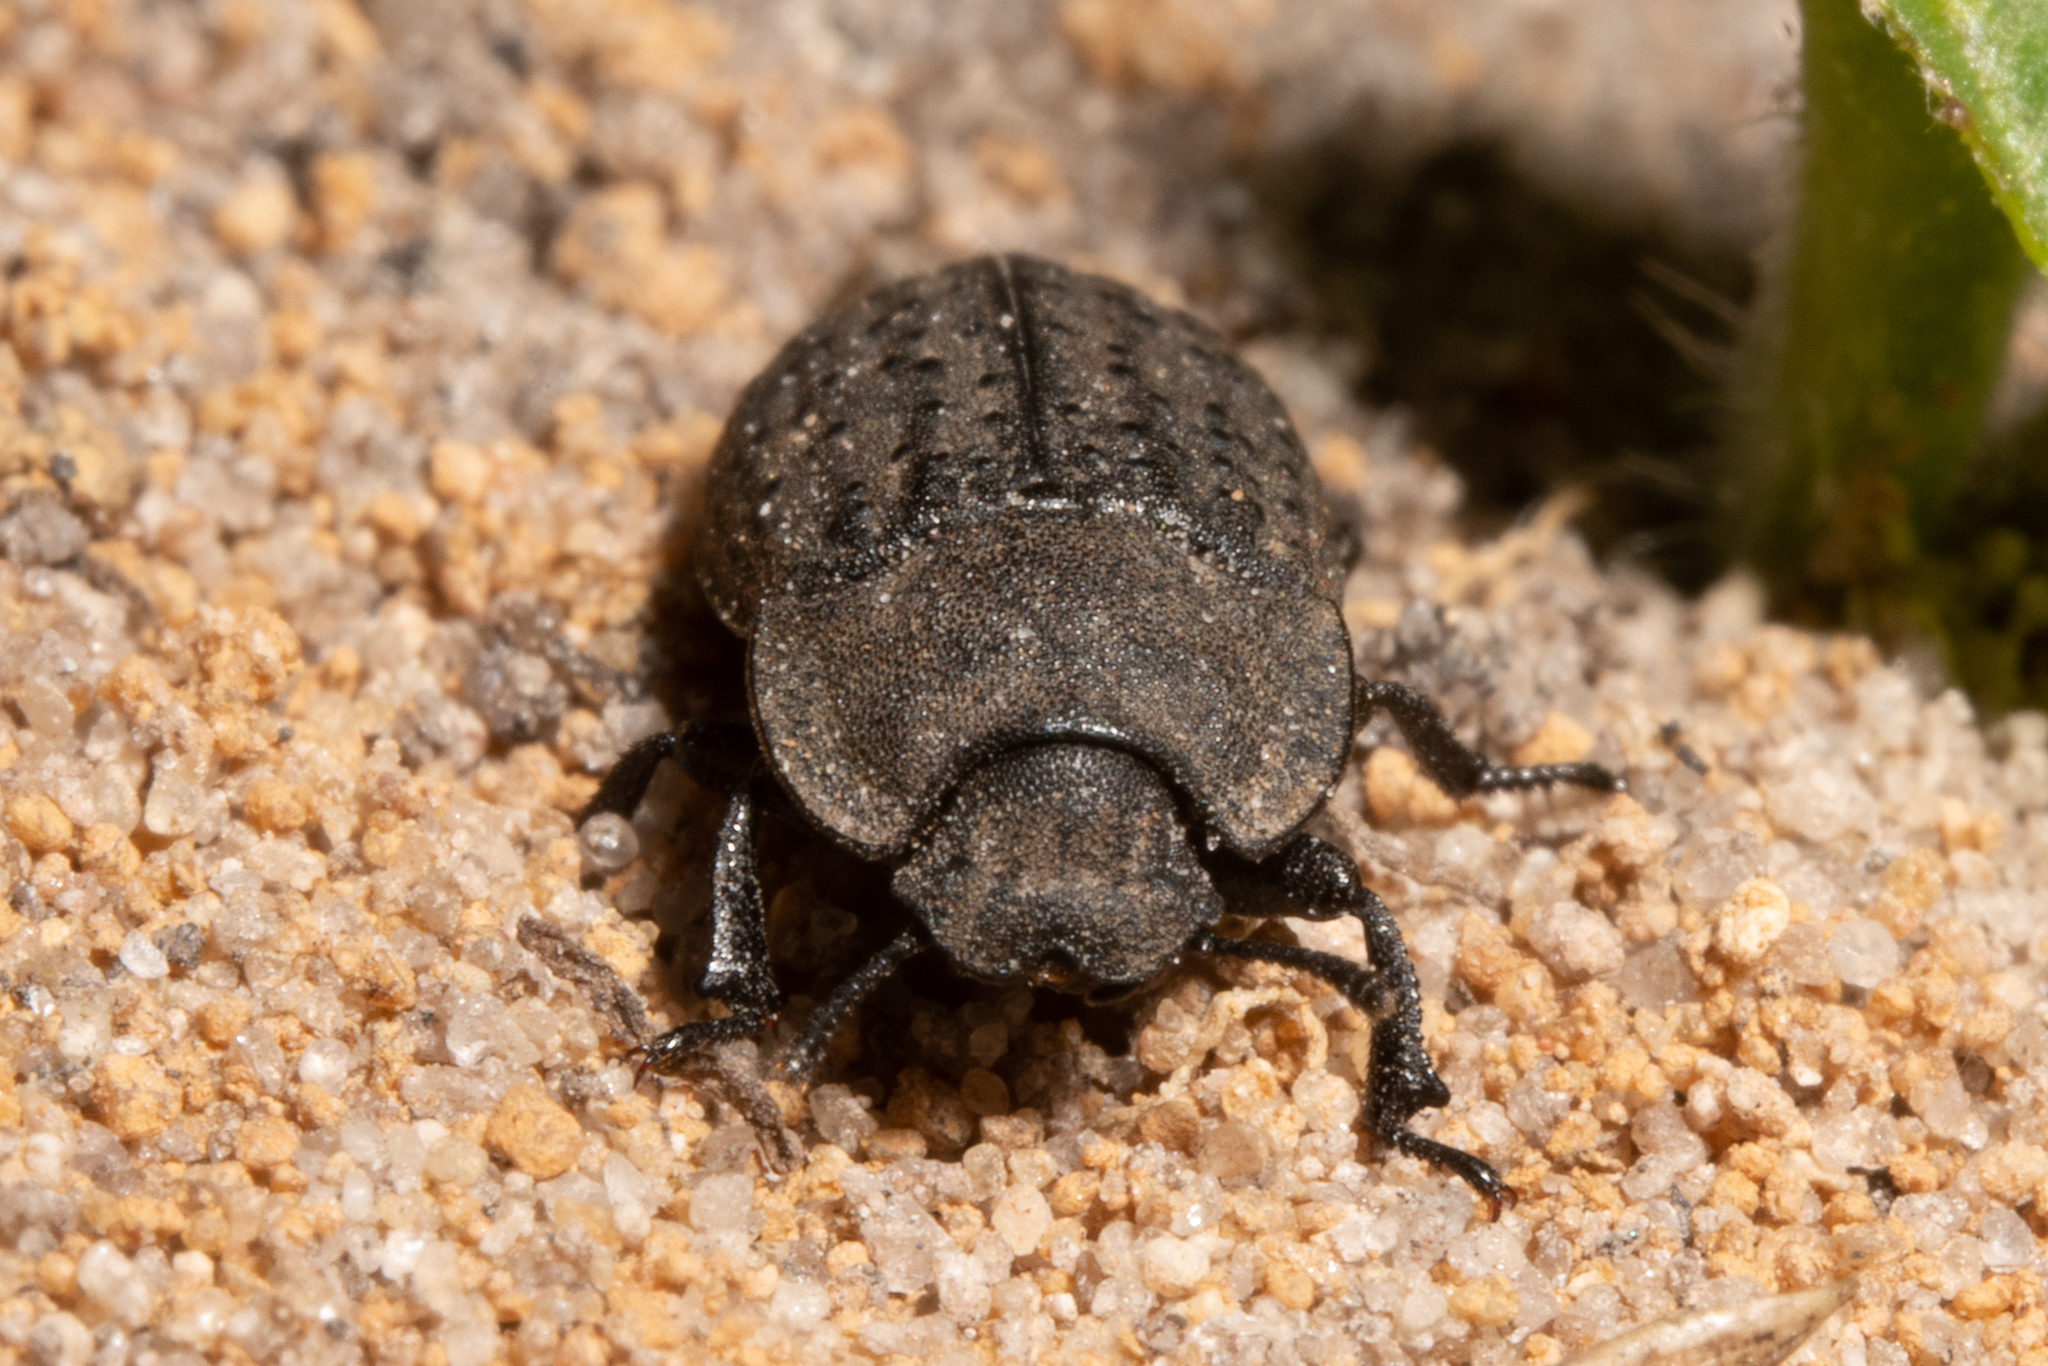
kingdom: Animalia
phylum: Arthropoda
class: Insecta
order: Coleoptera
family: Tenebrionidae
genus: Opatrum
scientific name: Opatrum sabulosum
